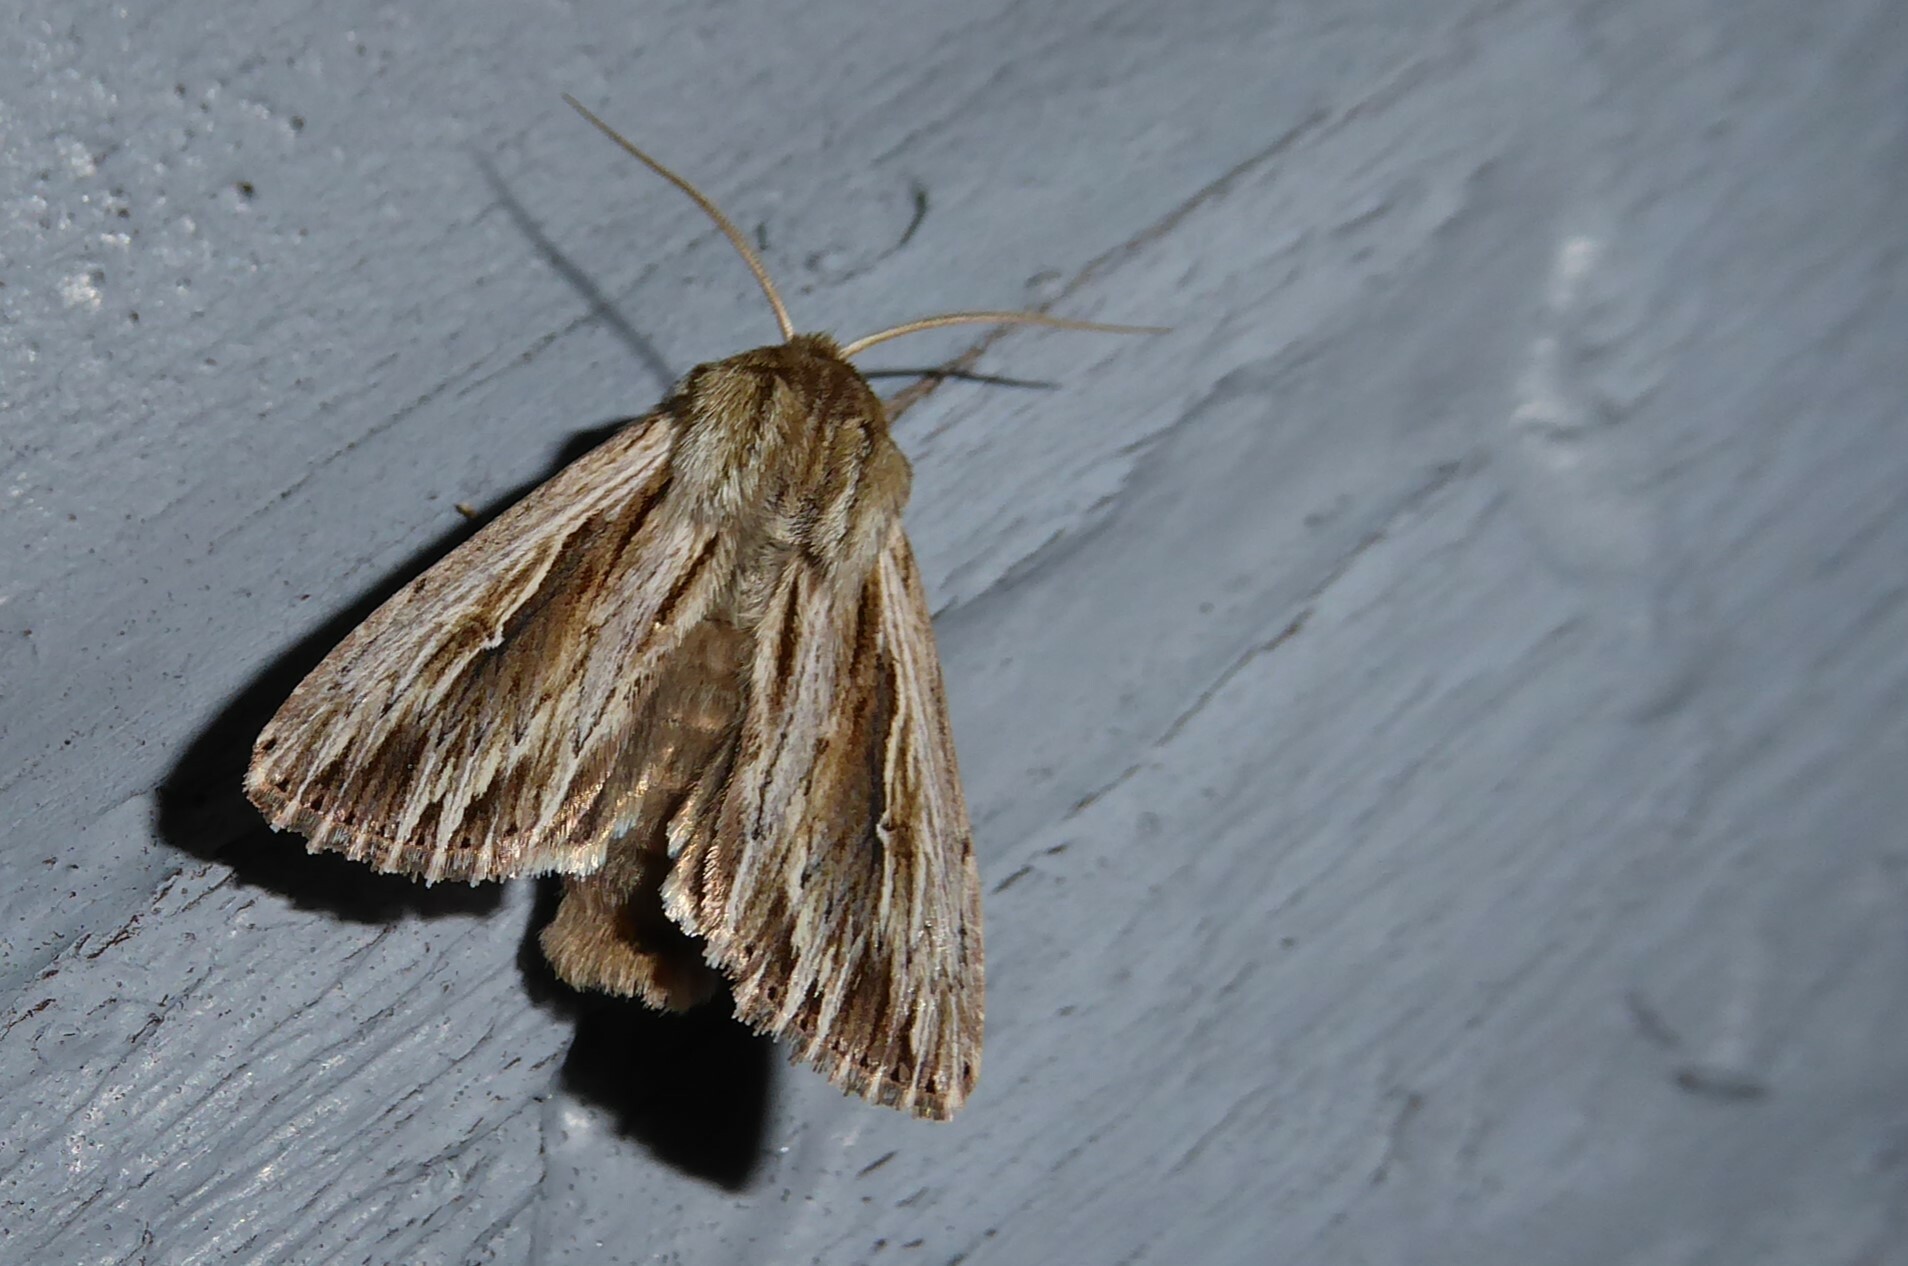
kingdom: Animalia
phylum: Arthropoda
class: Insecta
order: Lepidoptera
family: Noctuidae
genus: Persectania
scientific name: Persectania aversa
